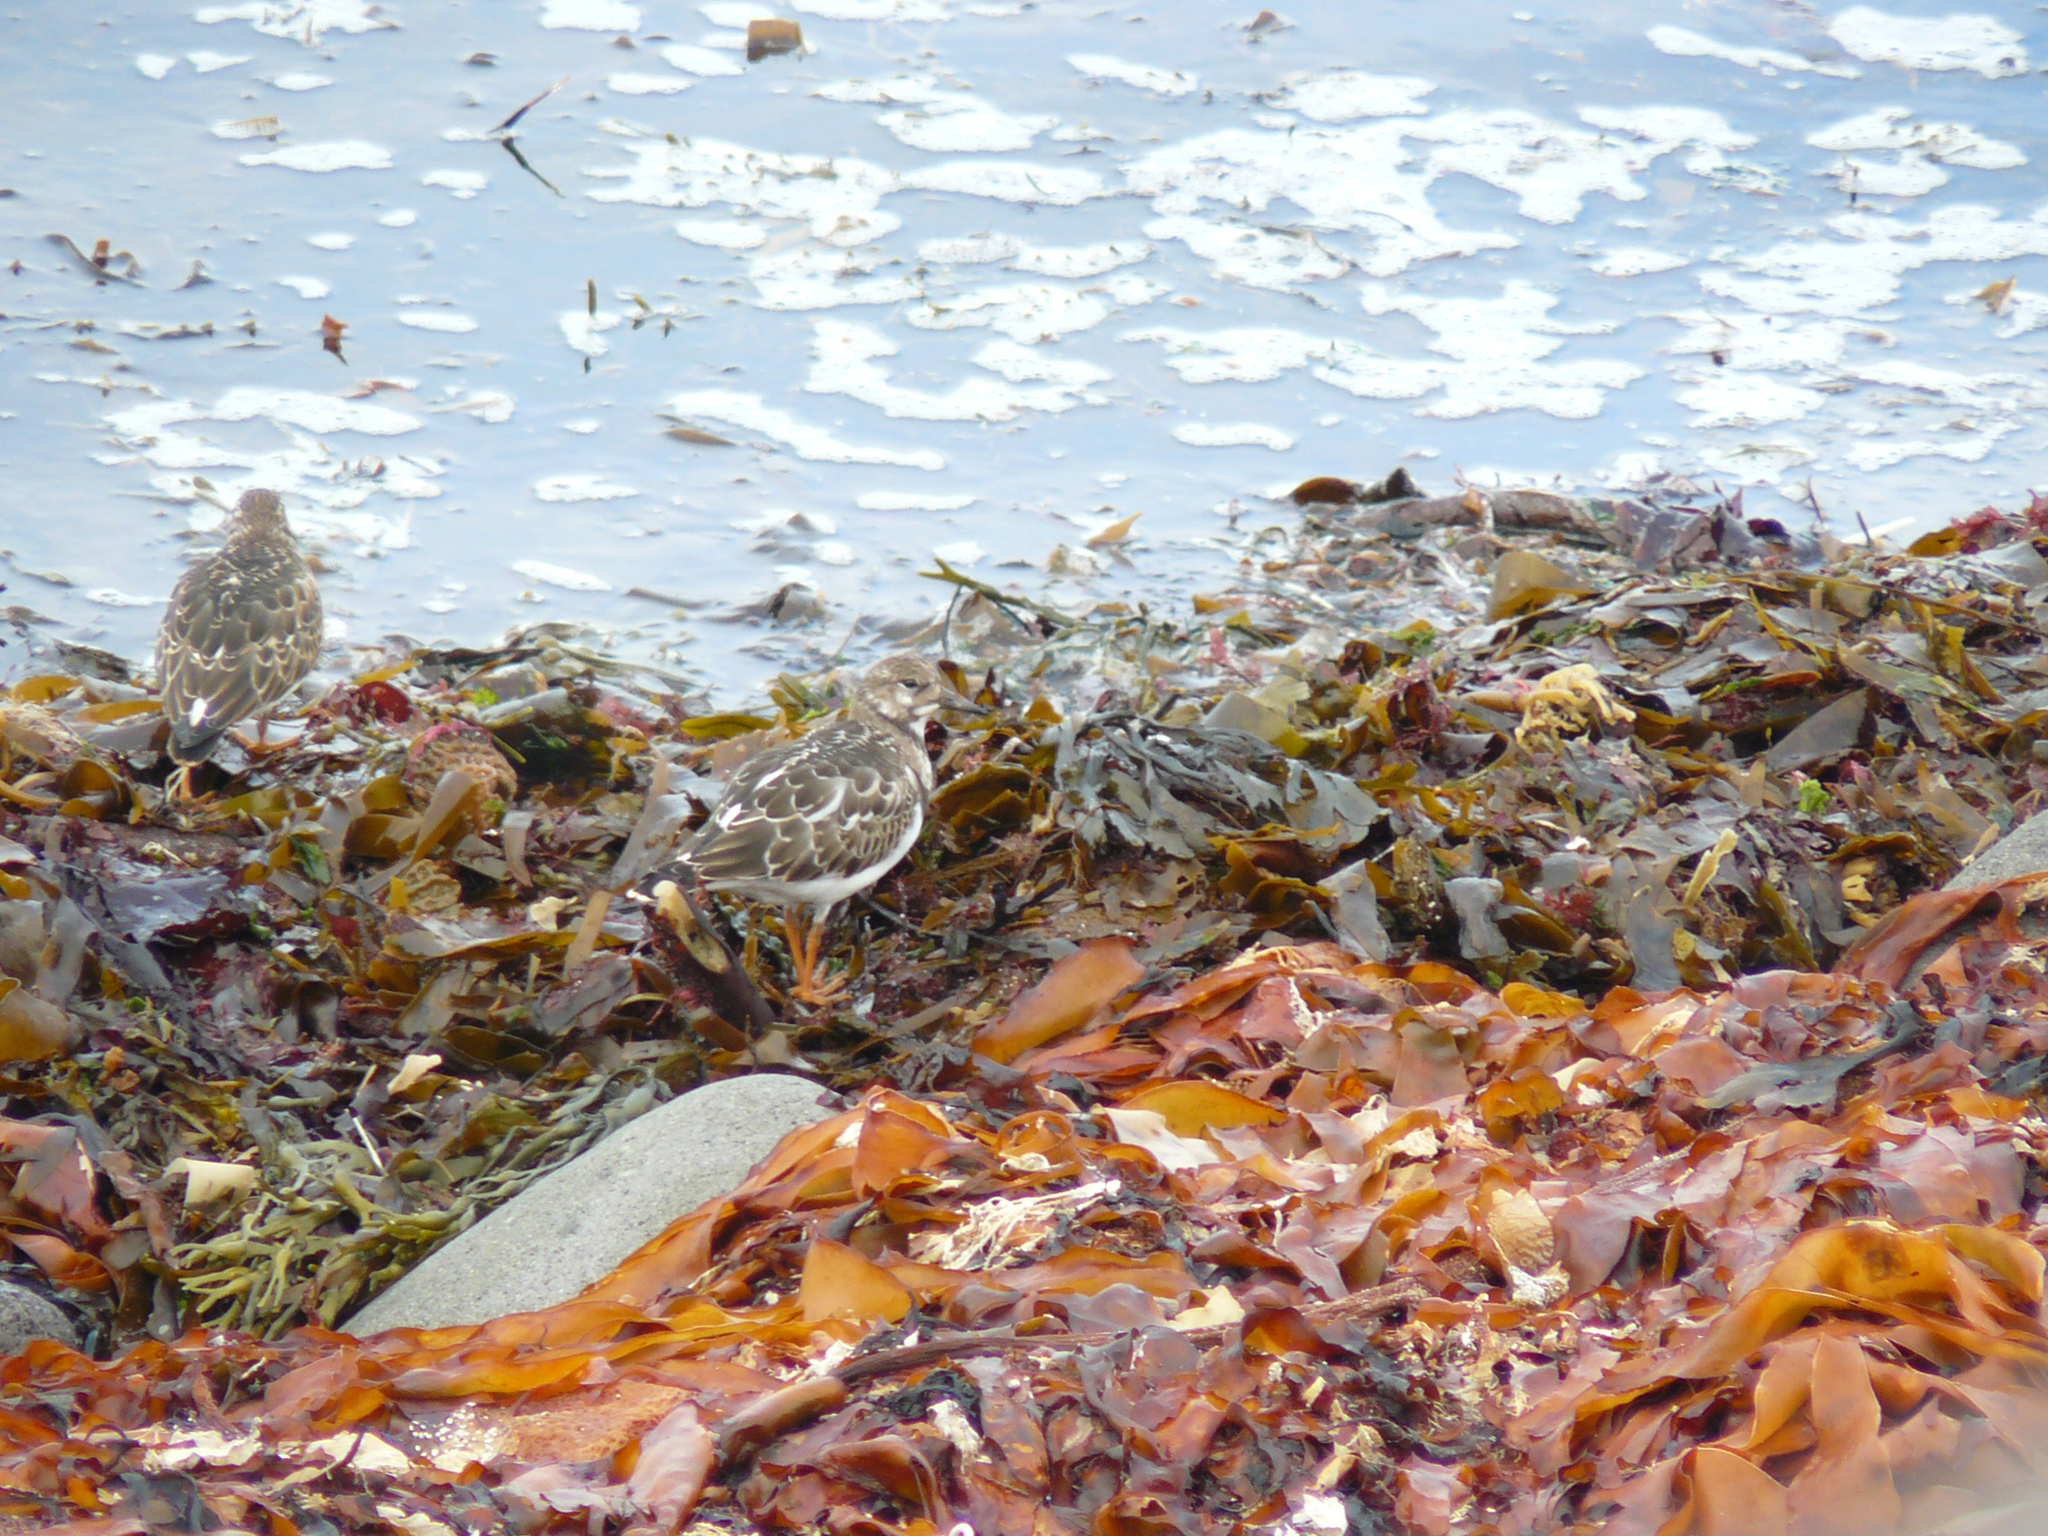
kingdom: Animalia
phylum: Chordata
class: Aves
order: Charadriiformes
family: Scolopacidae
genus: Arenaria
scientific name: Arenaria interpres
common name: Ruddy turnstone
